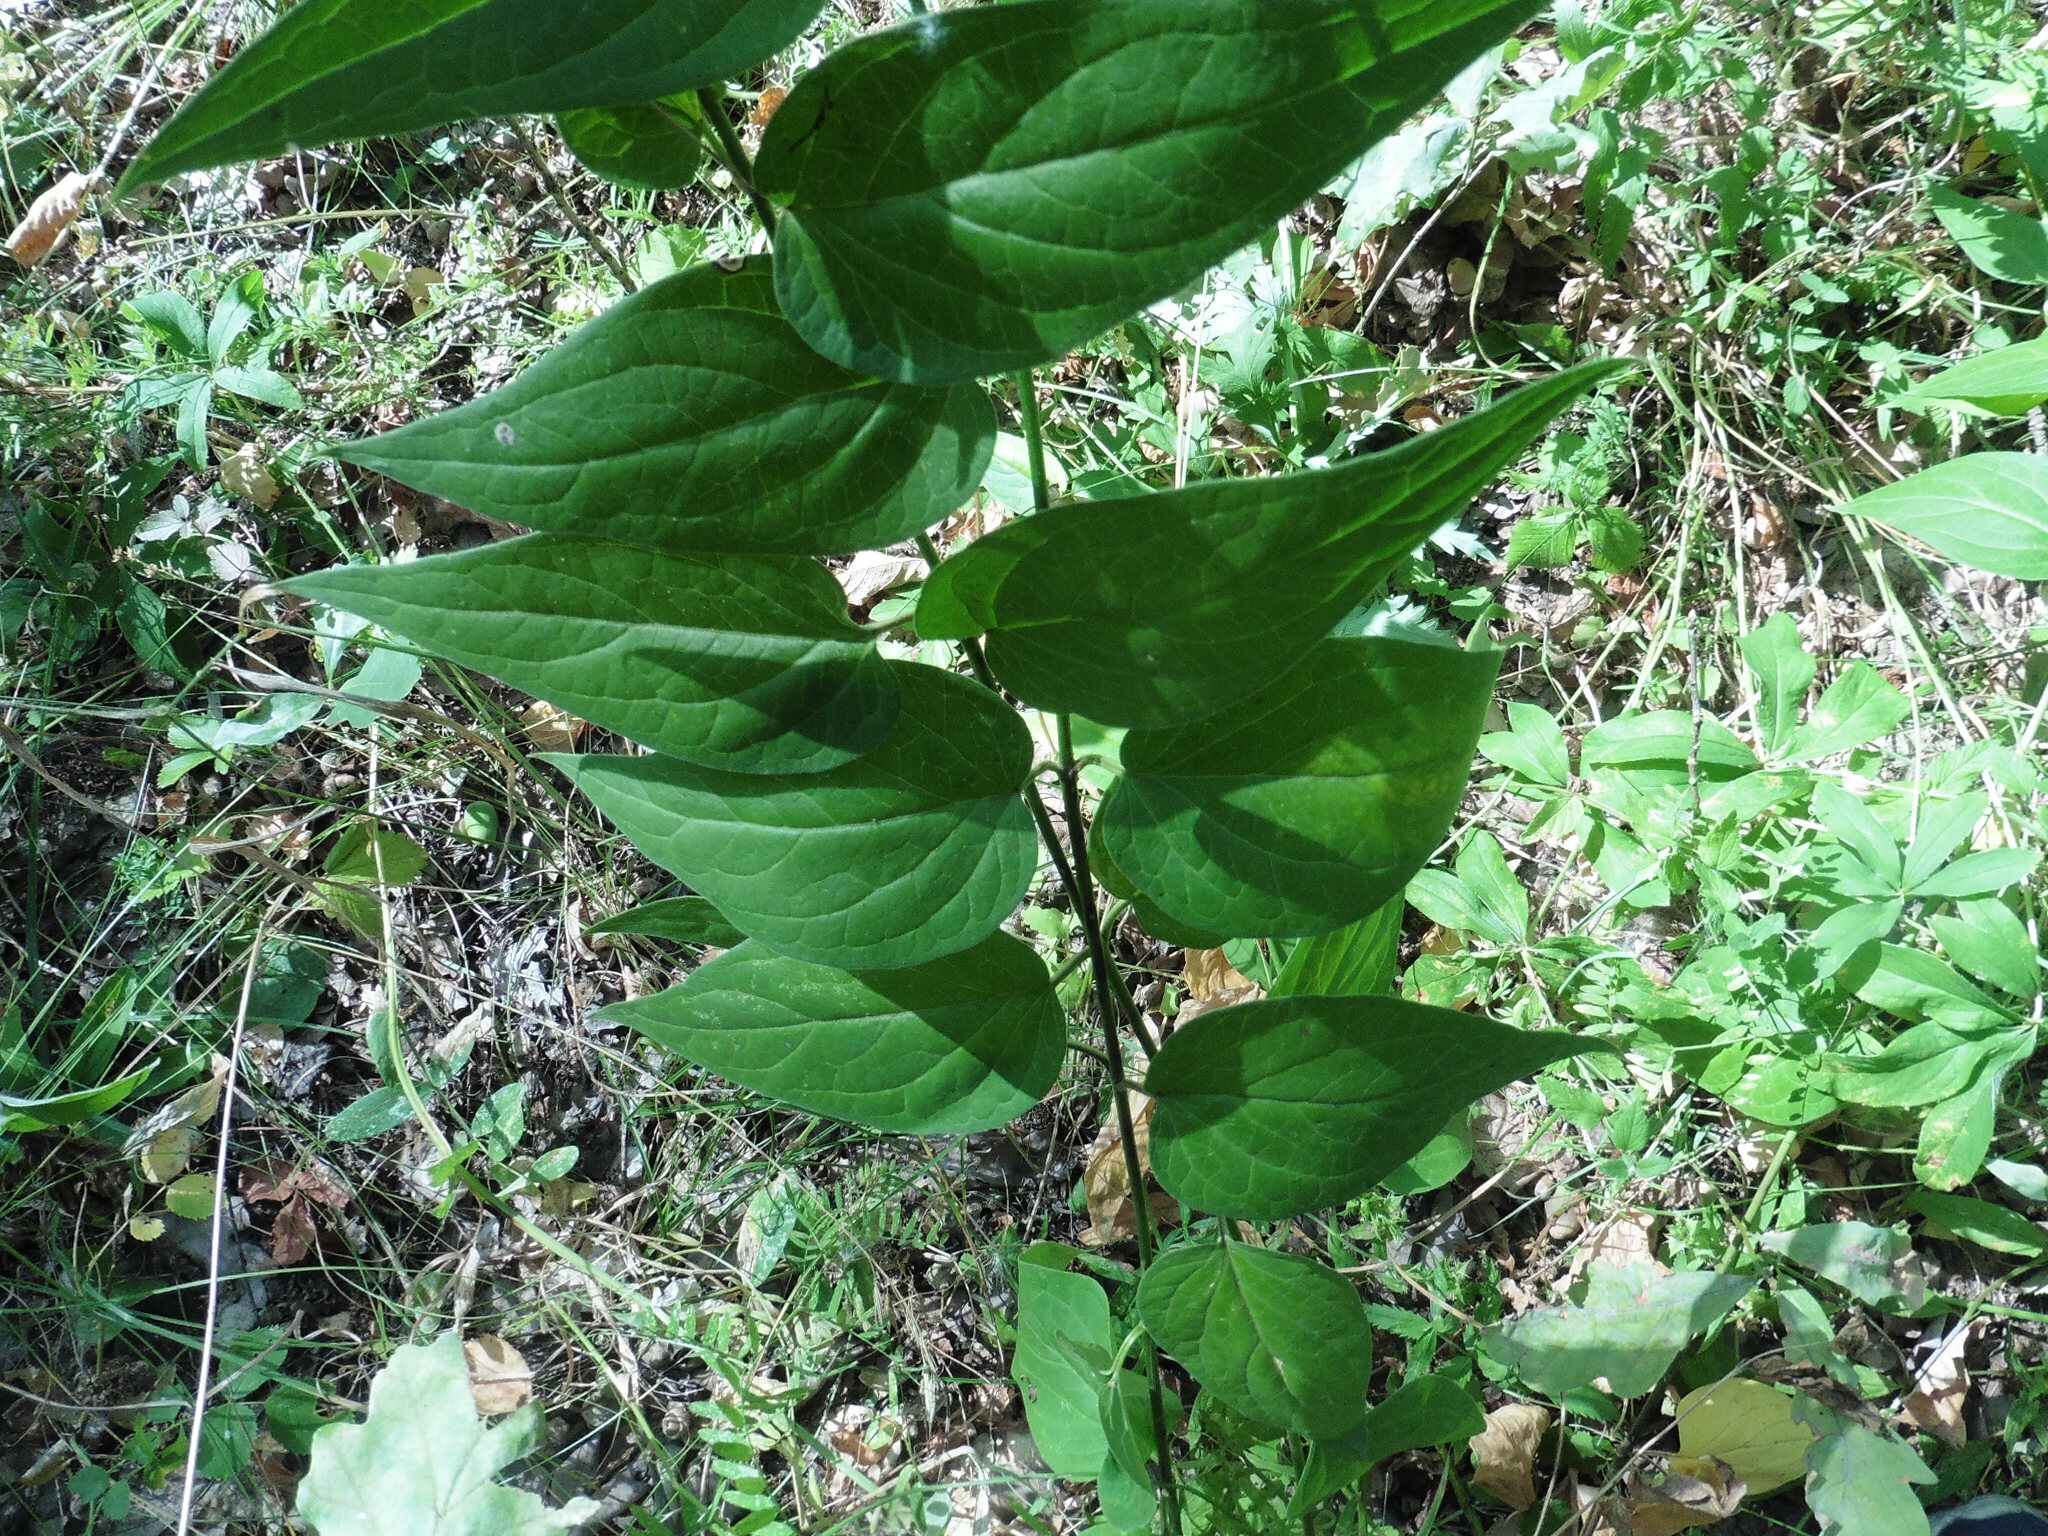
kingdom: Plantae
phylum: Tracheophyta
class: Magnoliopsida
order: Gentianales
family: Apocynaceae
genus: Vincetoxicum
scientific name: Vincetoxicum hirundinaria
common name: White swallowwort
